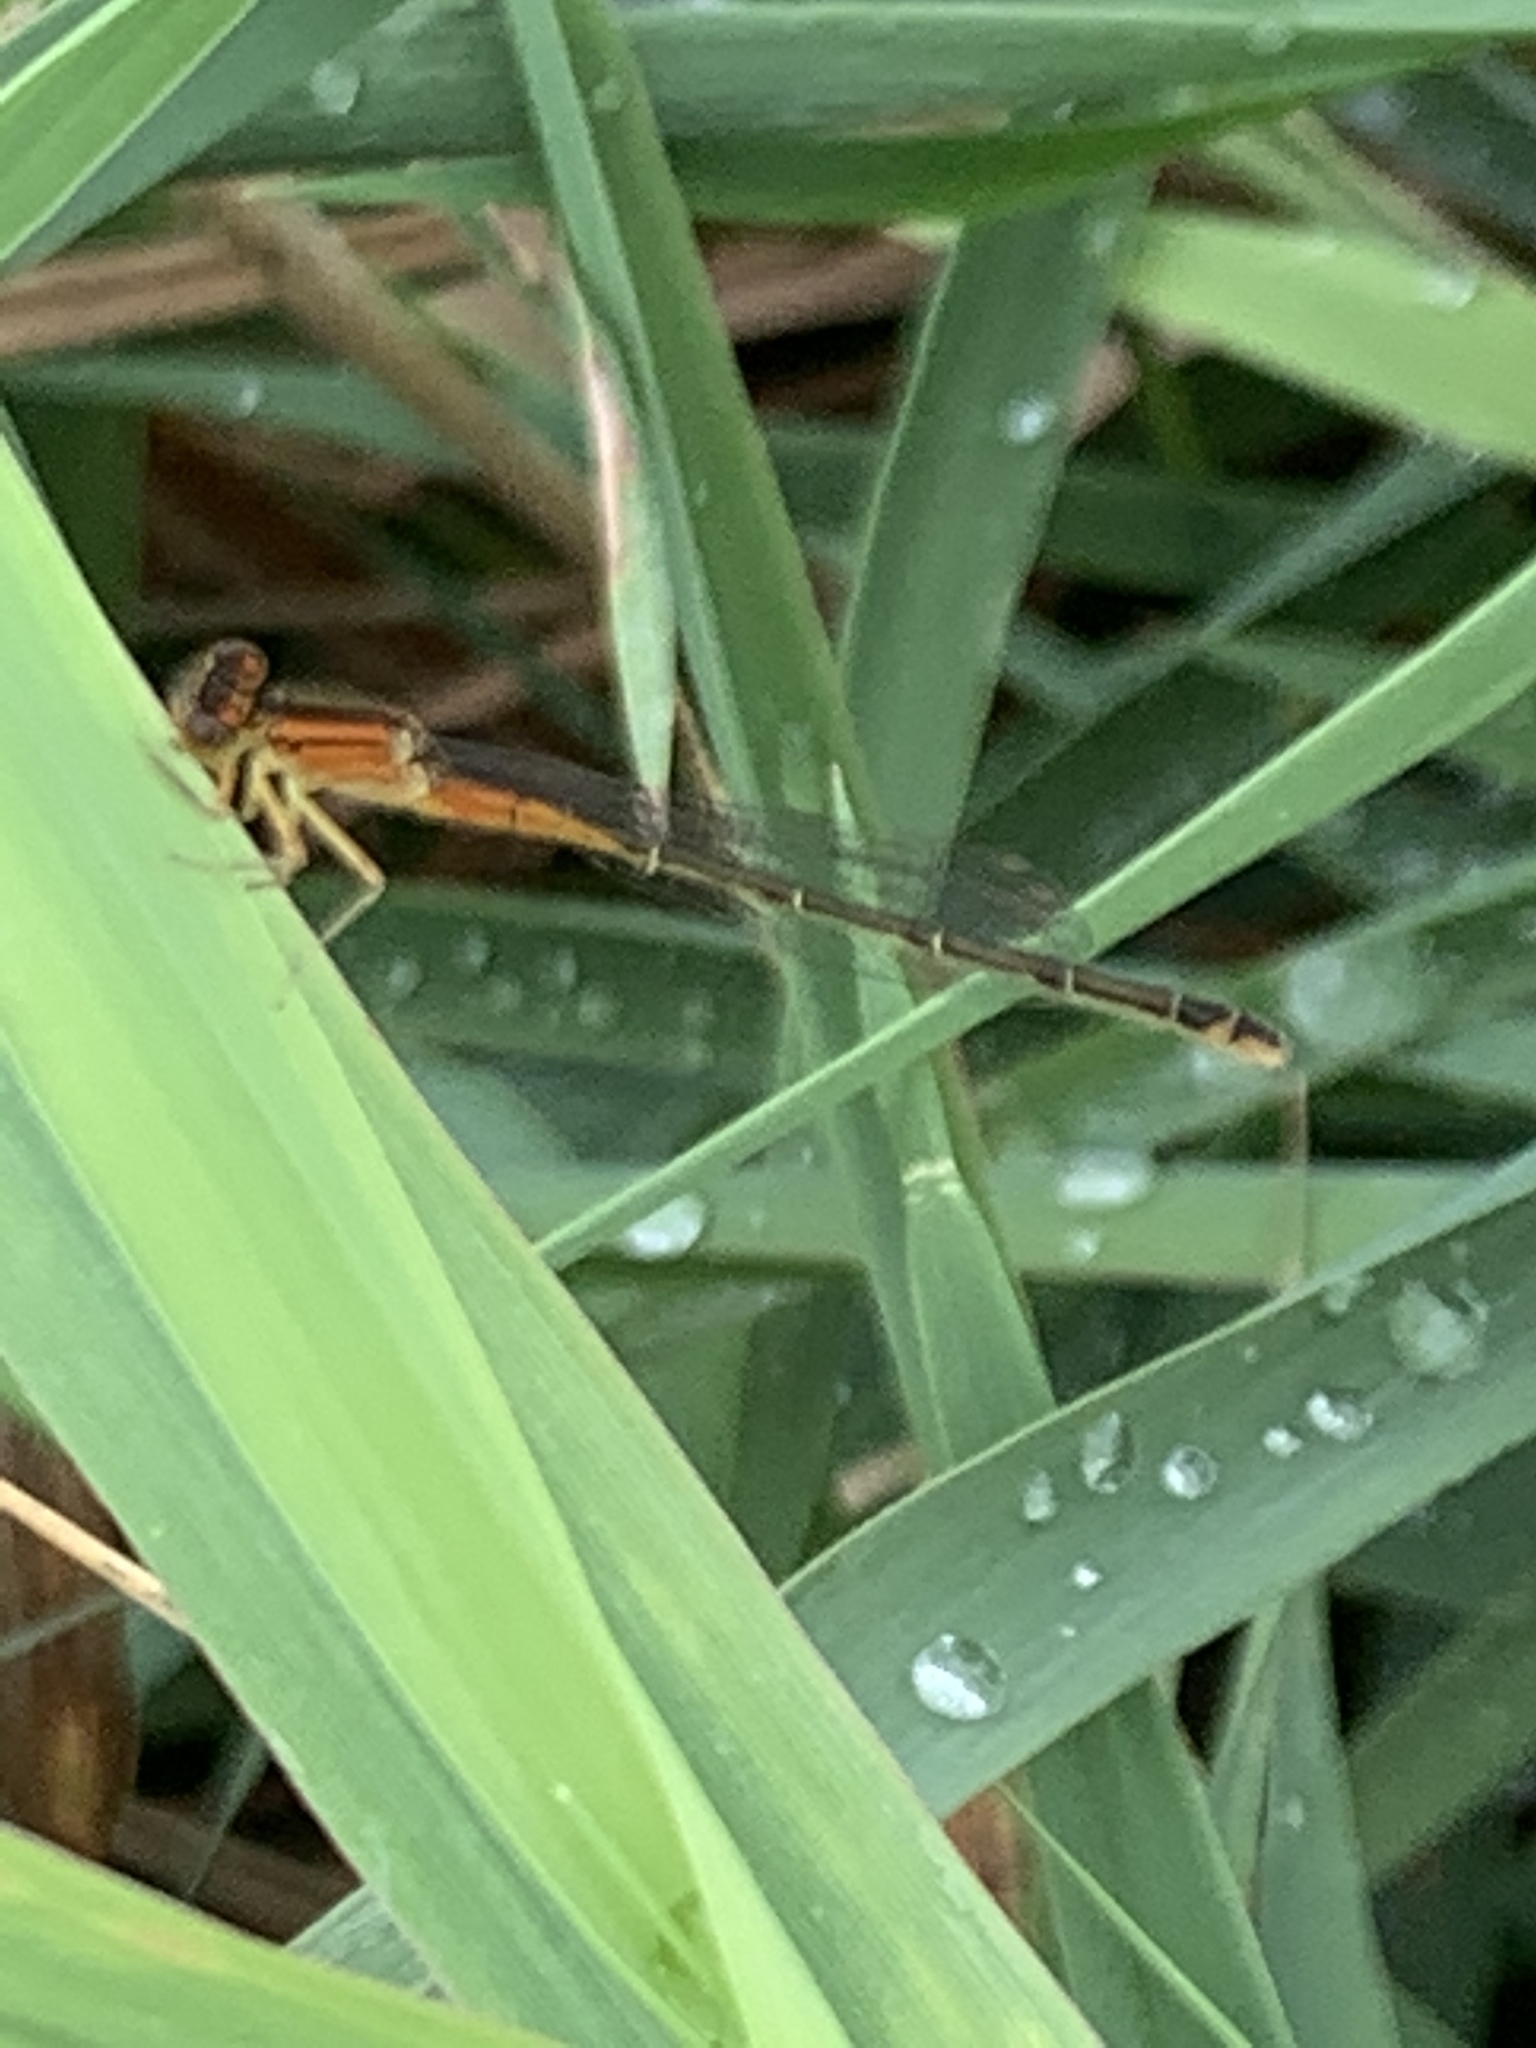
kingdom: Animalia
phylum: Arthropoda
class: Insecta
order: Odonata
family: Coenagrionidae
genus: Ischnura
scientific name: Ischnura verticalis
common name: Eastern forktail
